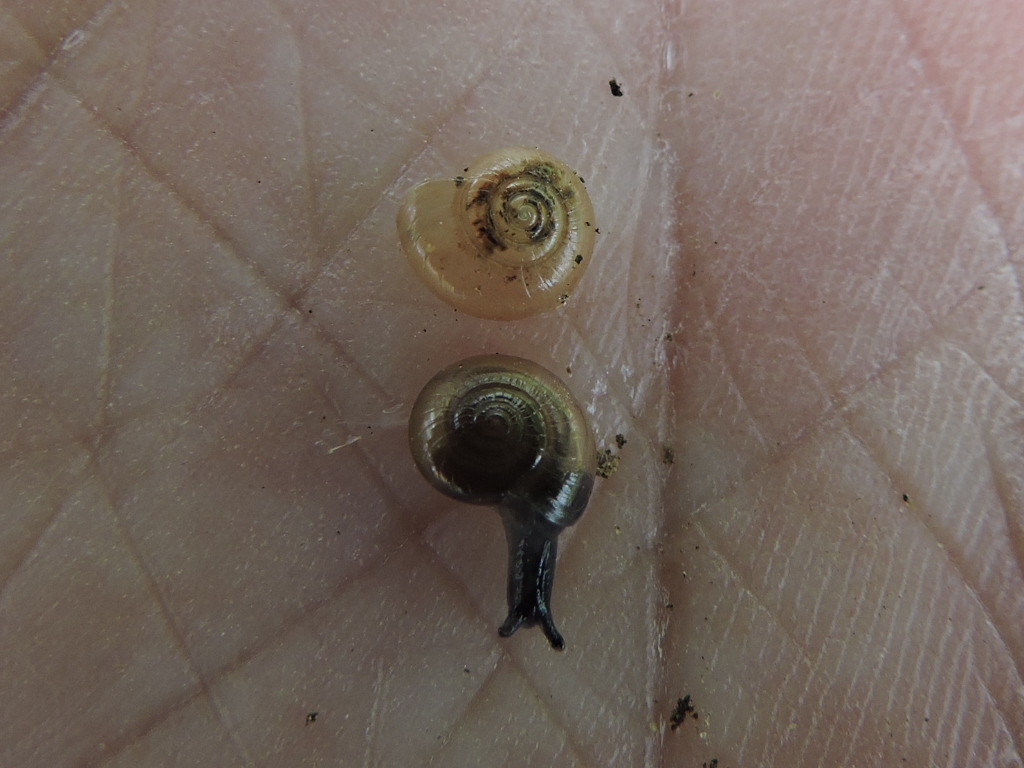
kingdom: Animalia
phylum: Mollusca
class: Gastropoda
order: Stylommatophora
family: Gastrodontidae
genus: Glyphyalinia
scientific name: Glyphyalinia indentata
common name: Carved glyph
